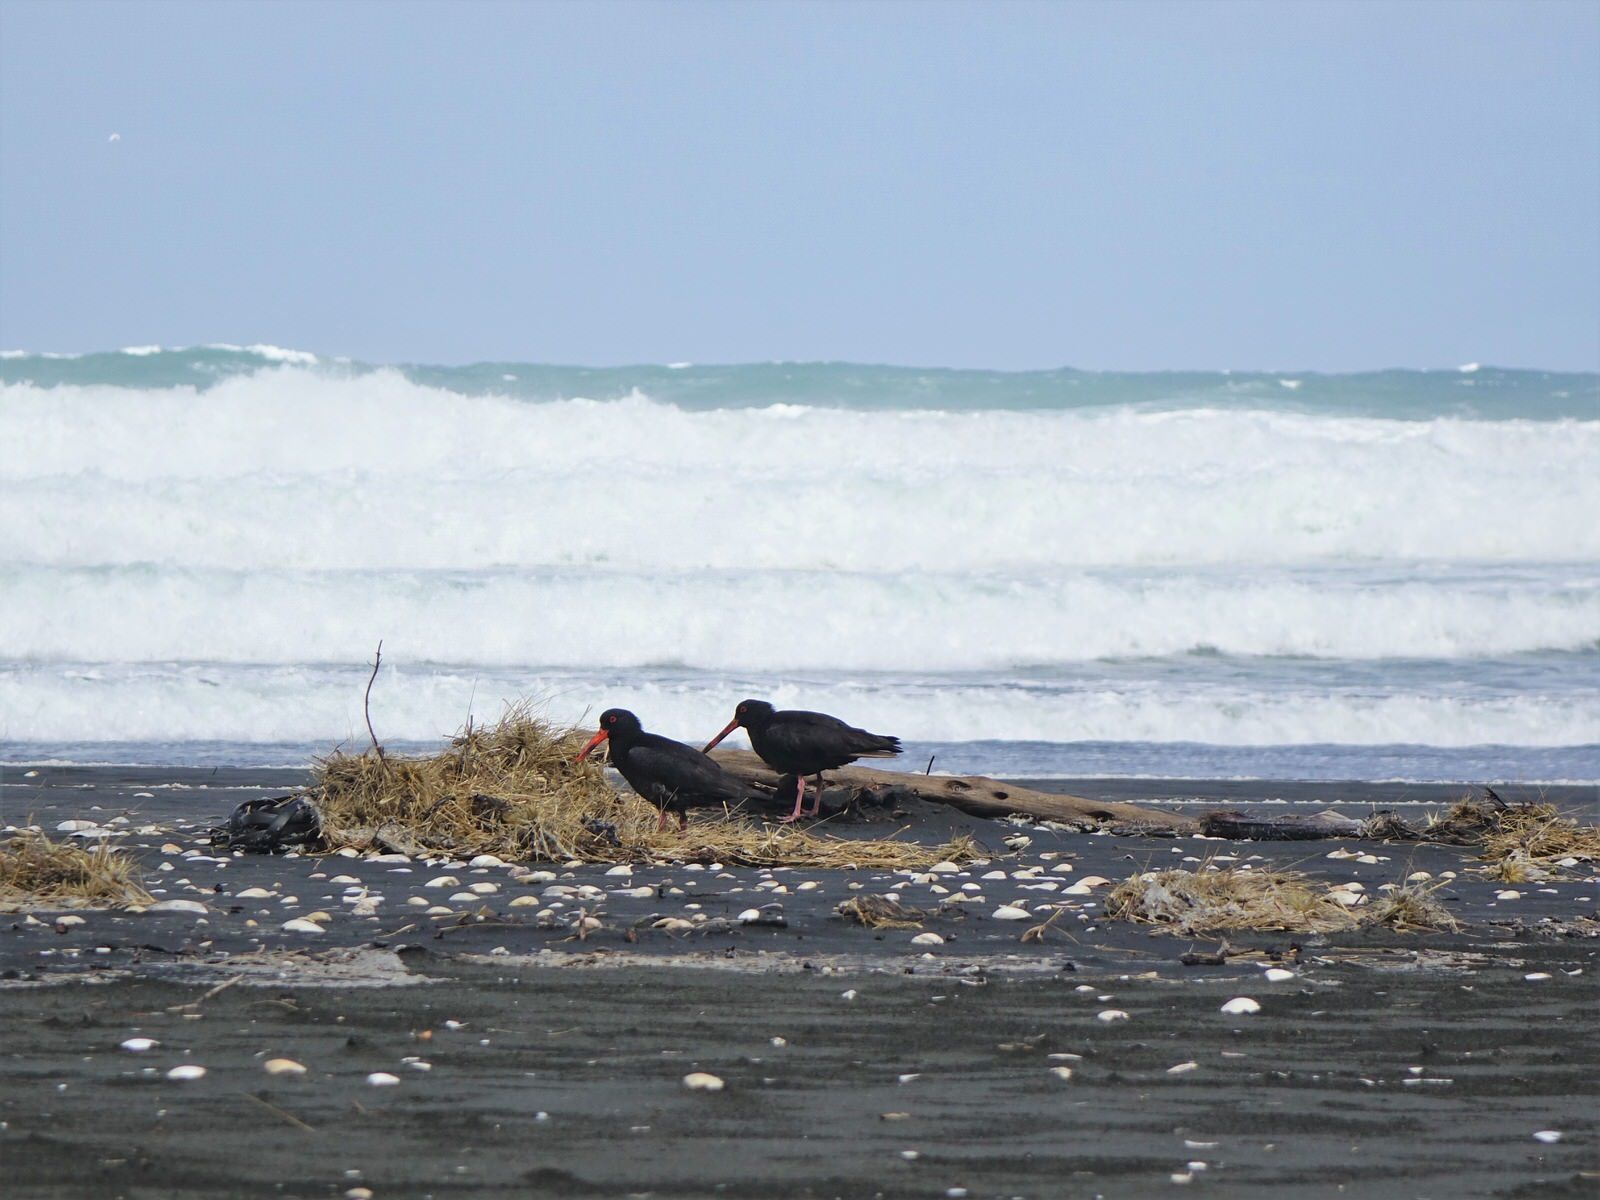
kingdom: Animalia
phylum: Chordata
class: Aves
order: Charadriiformes
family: Haematopodidae
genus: Haematopus
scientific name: Haematopus unicolor
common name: Variable oystercatcher
